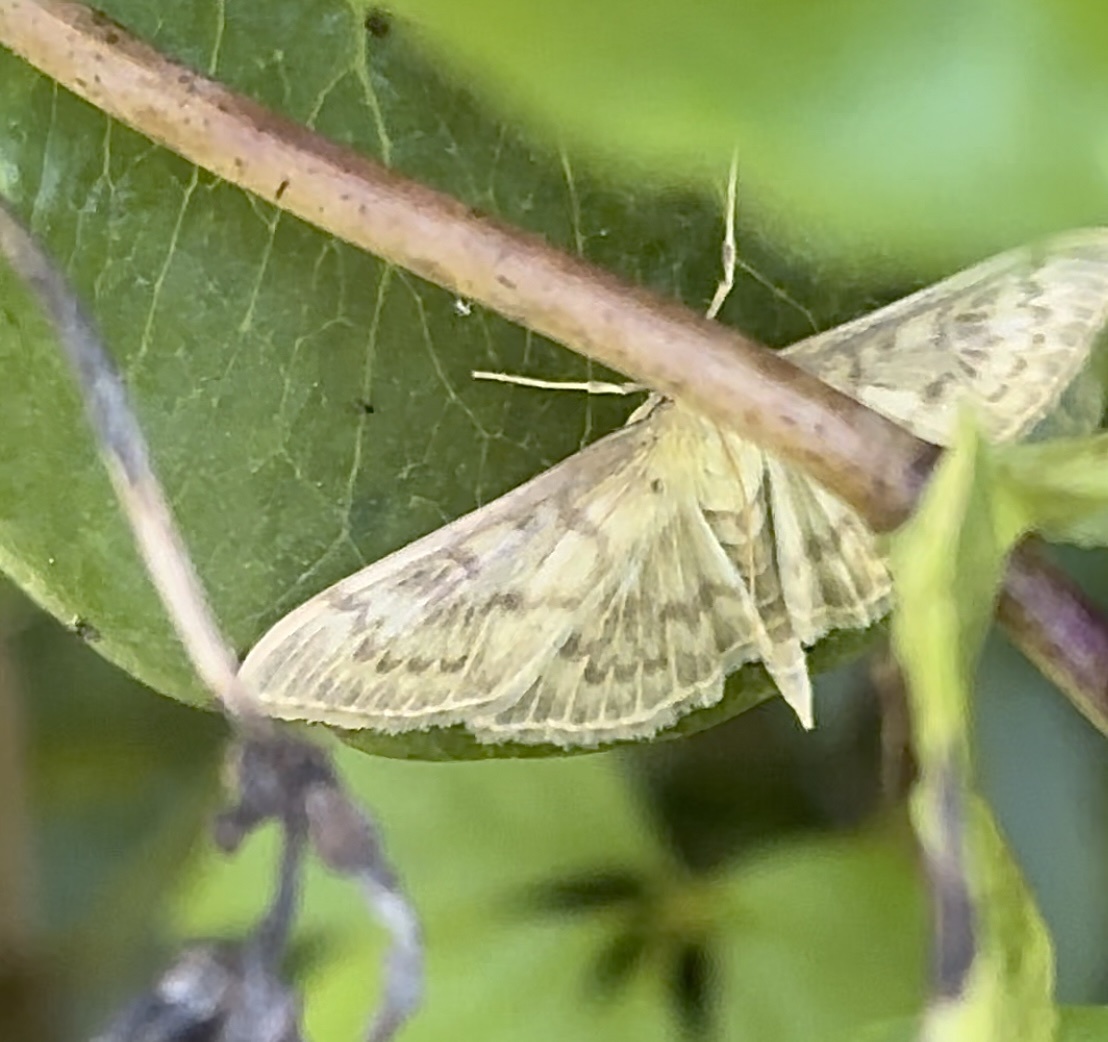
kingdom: Animalia
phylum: Arthropoda
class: Insecta
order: Lepidoptera
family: Crambidae
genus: Patania
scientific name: Patania ruralis
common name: Mother of pearl
